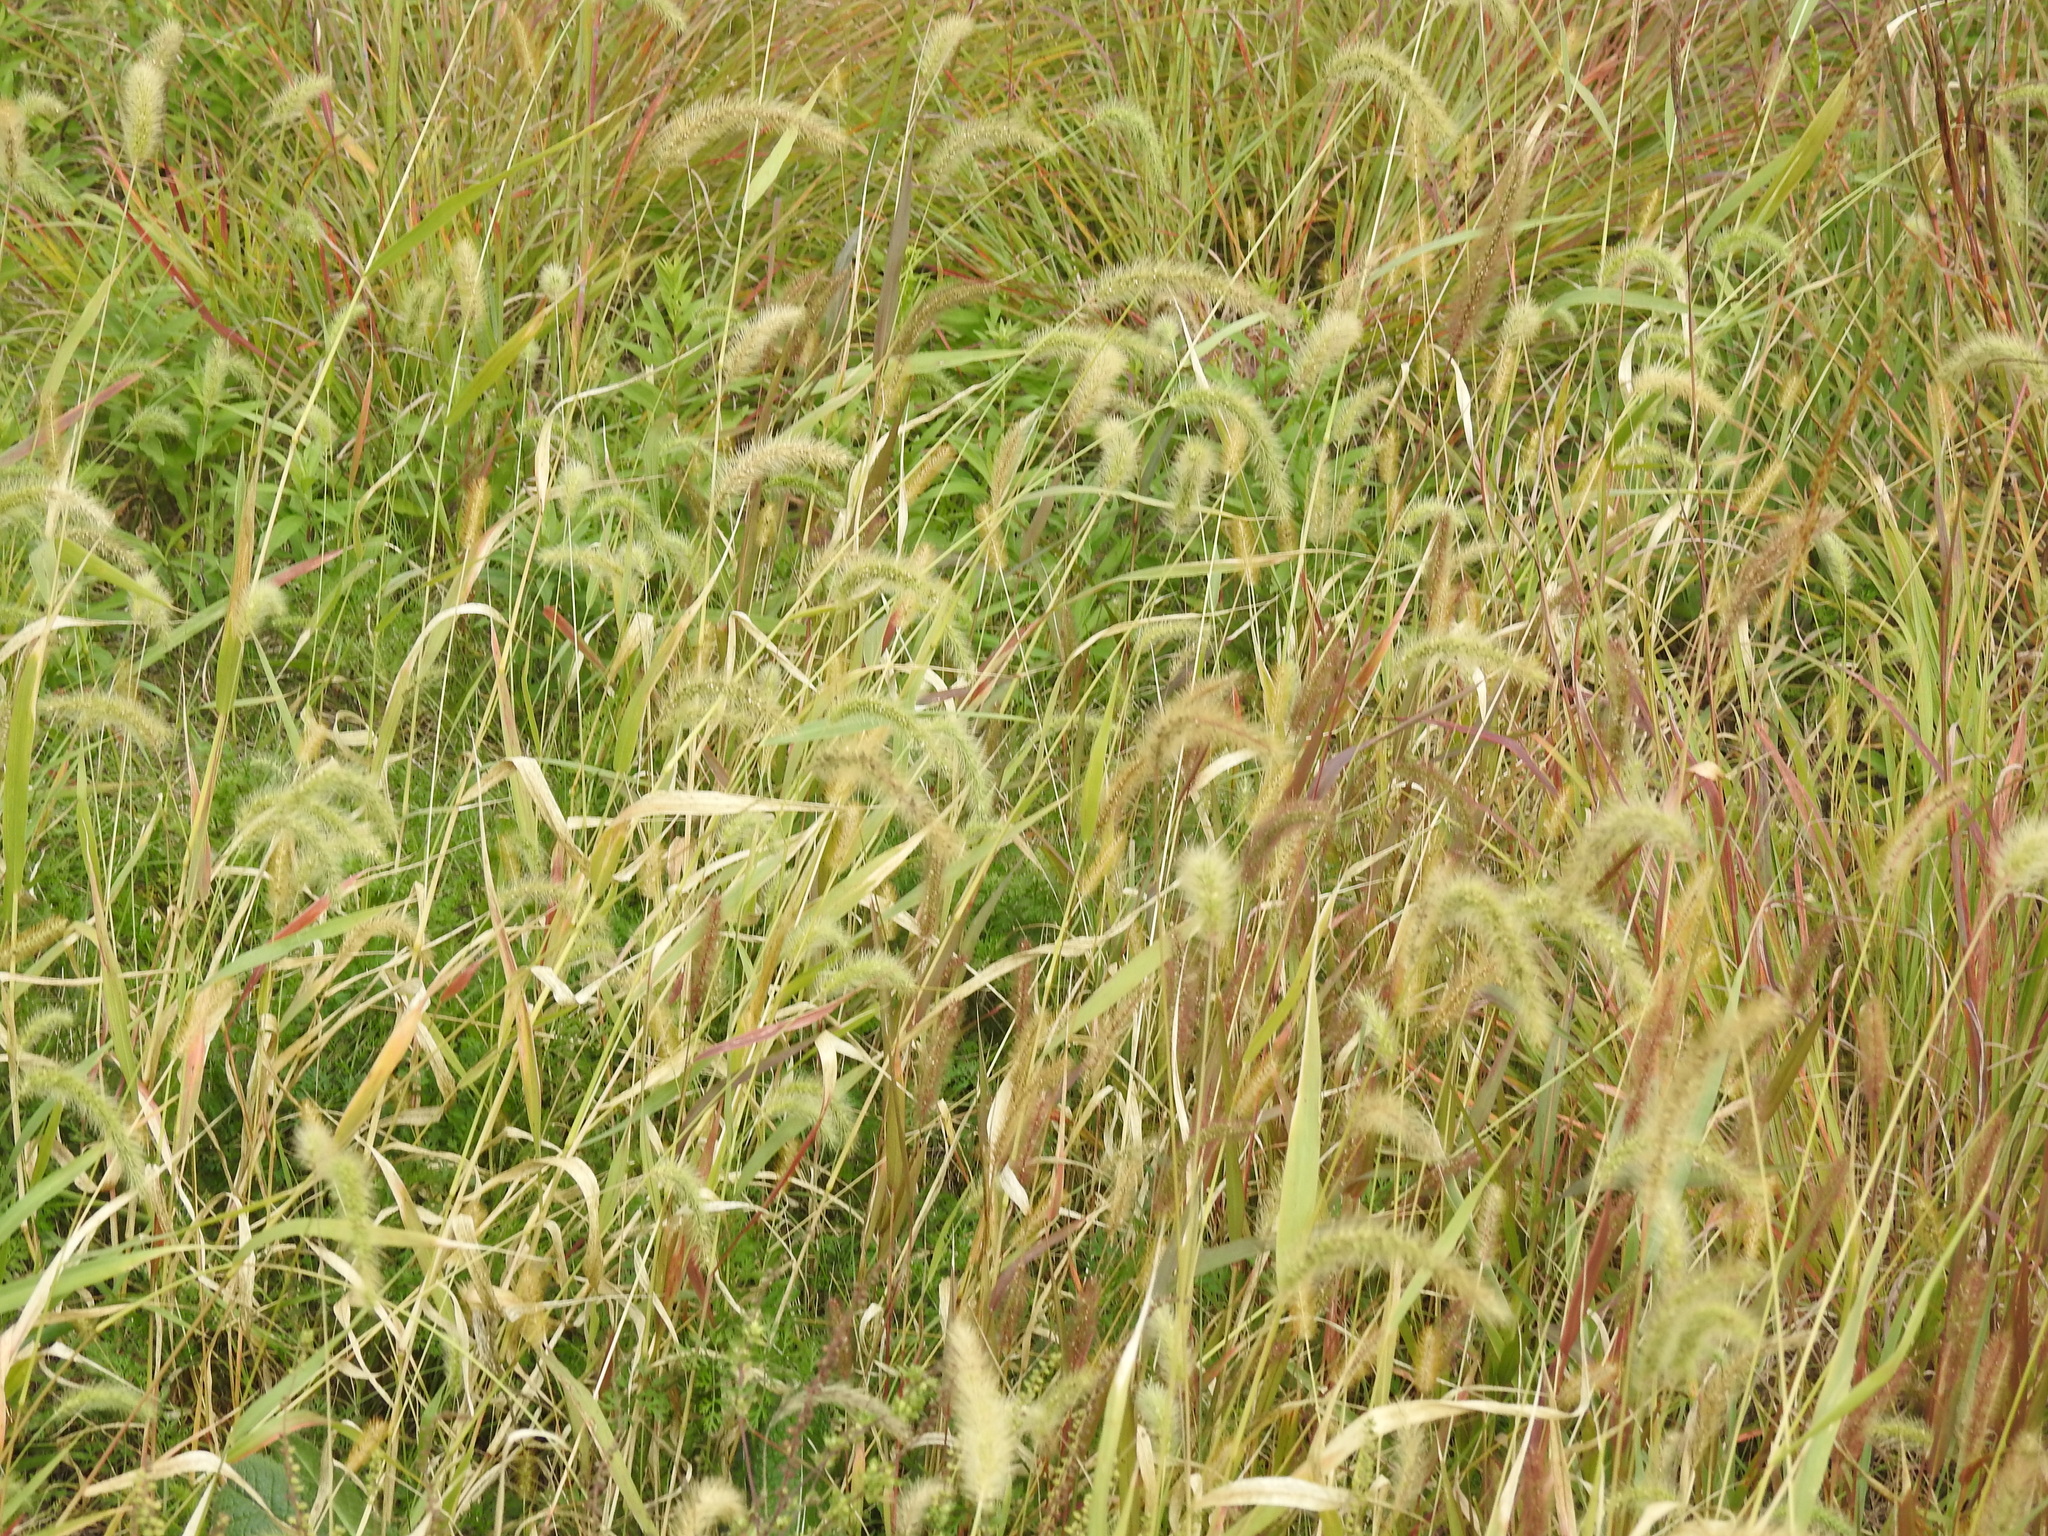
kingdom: Plantae
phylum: Tracheophyta
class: Liliopsida
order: Poales
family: Poaceae
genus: Setaria
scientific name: Setaria viridis
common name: Green bristlegrass
